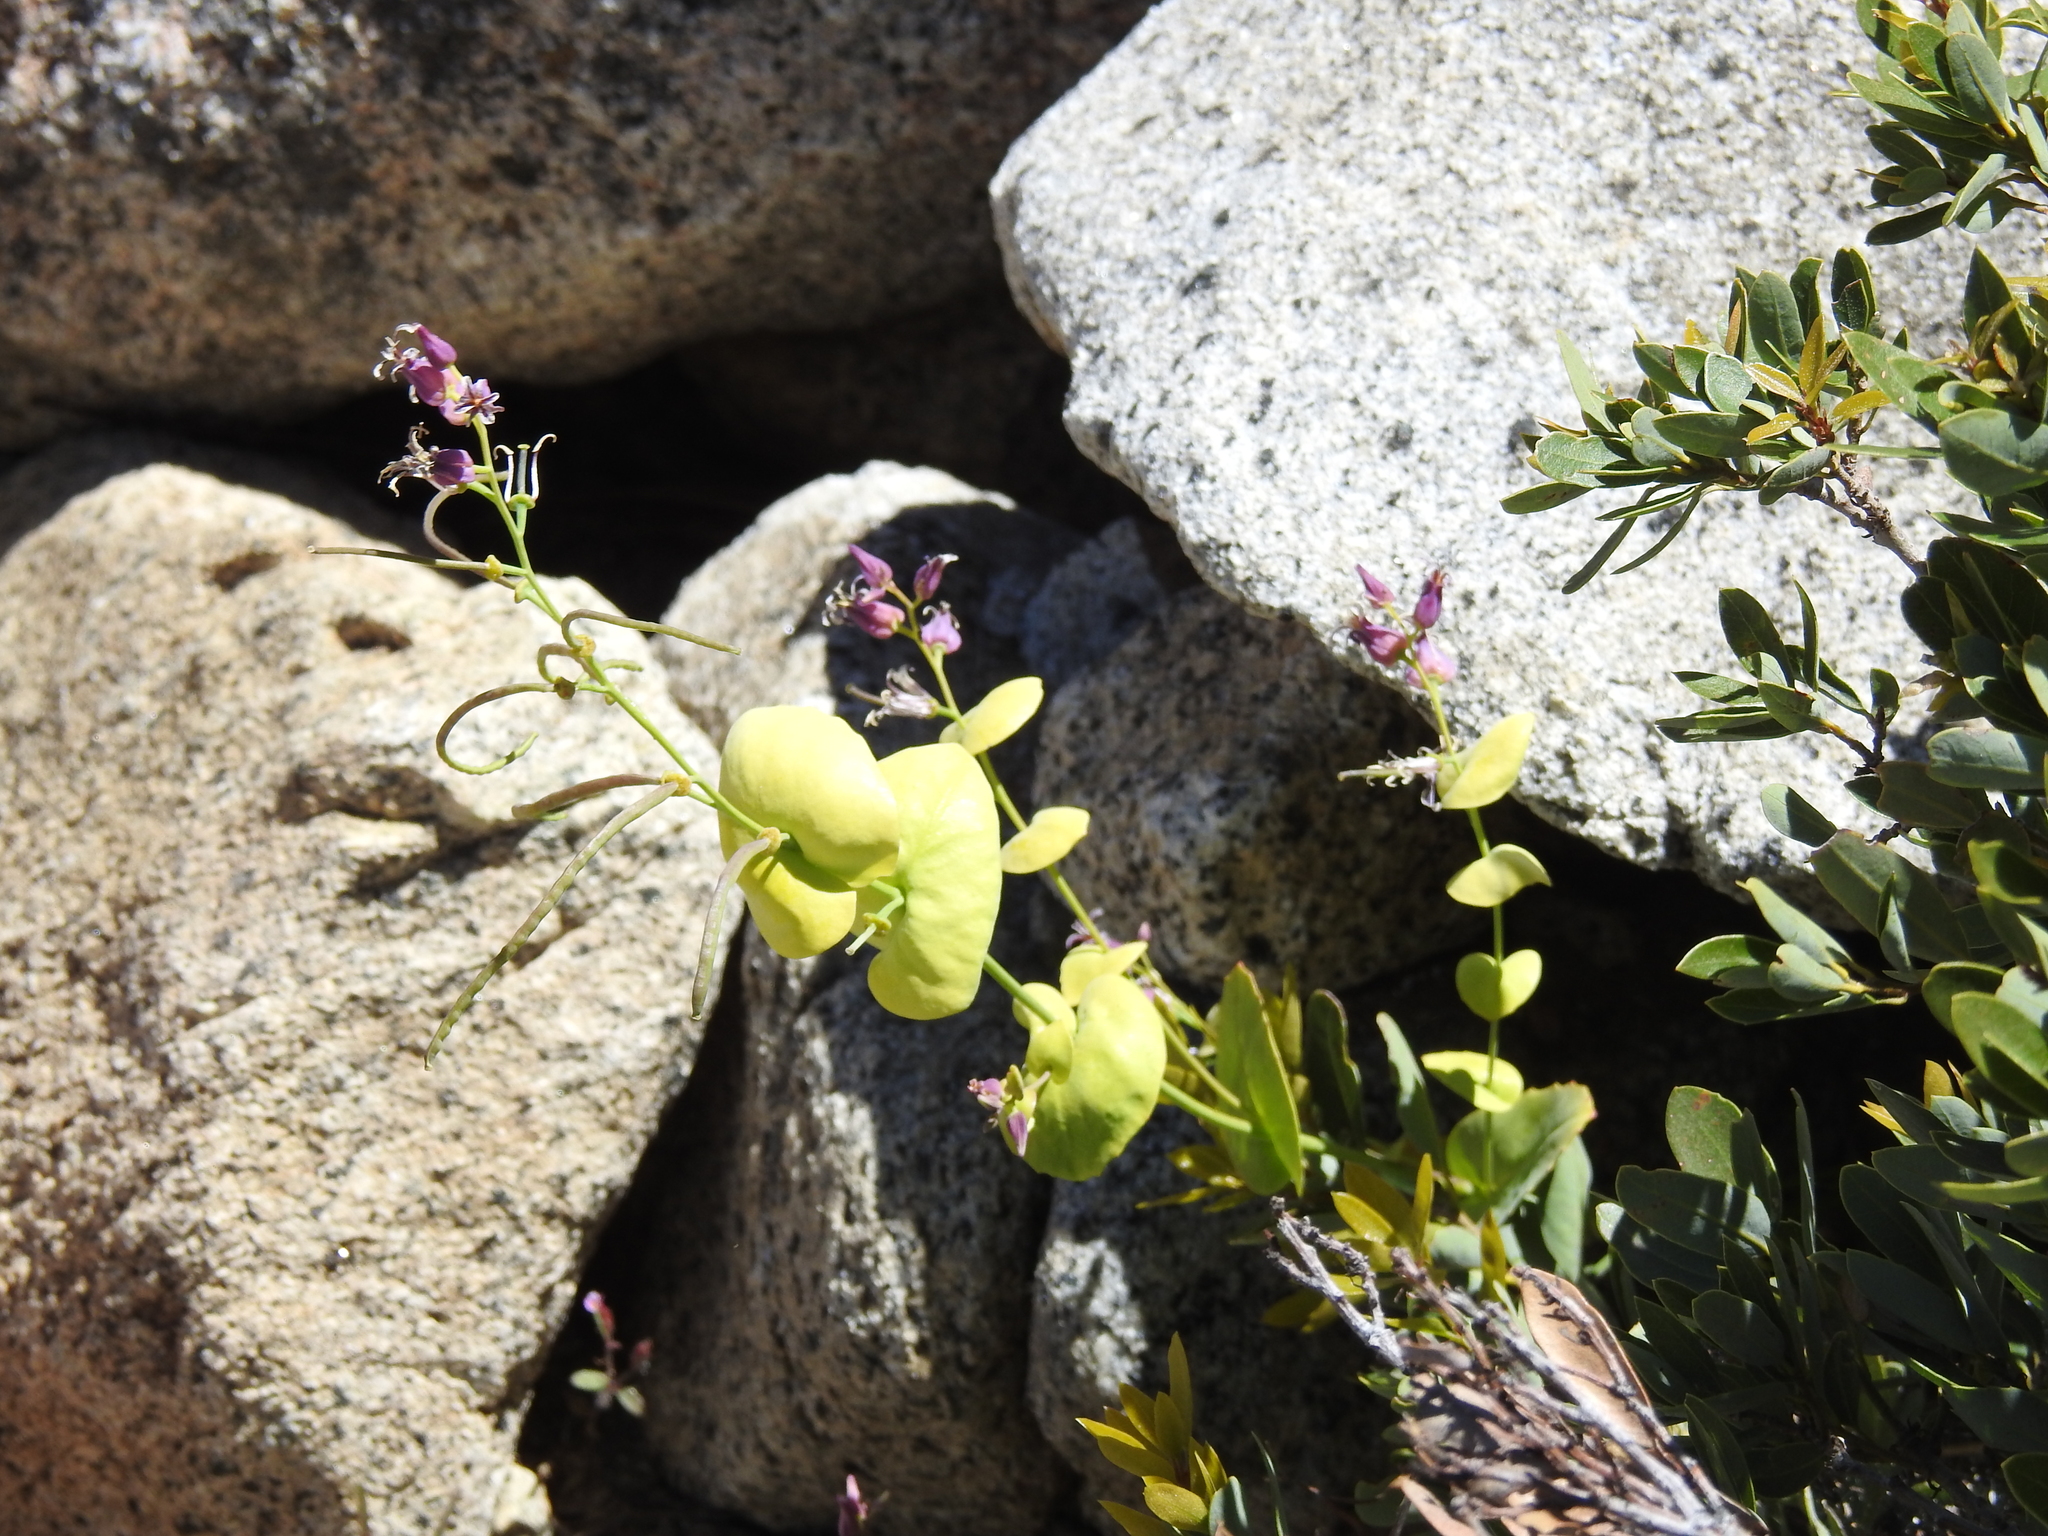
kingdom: Plantae
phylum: Tracheophyta
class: Magnoliopsida
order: Brassicales
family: Brassicaceae
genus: Streptanthus
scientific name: Streptanthus tortuosus
